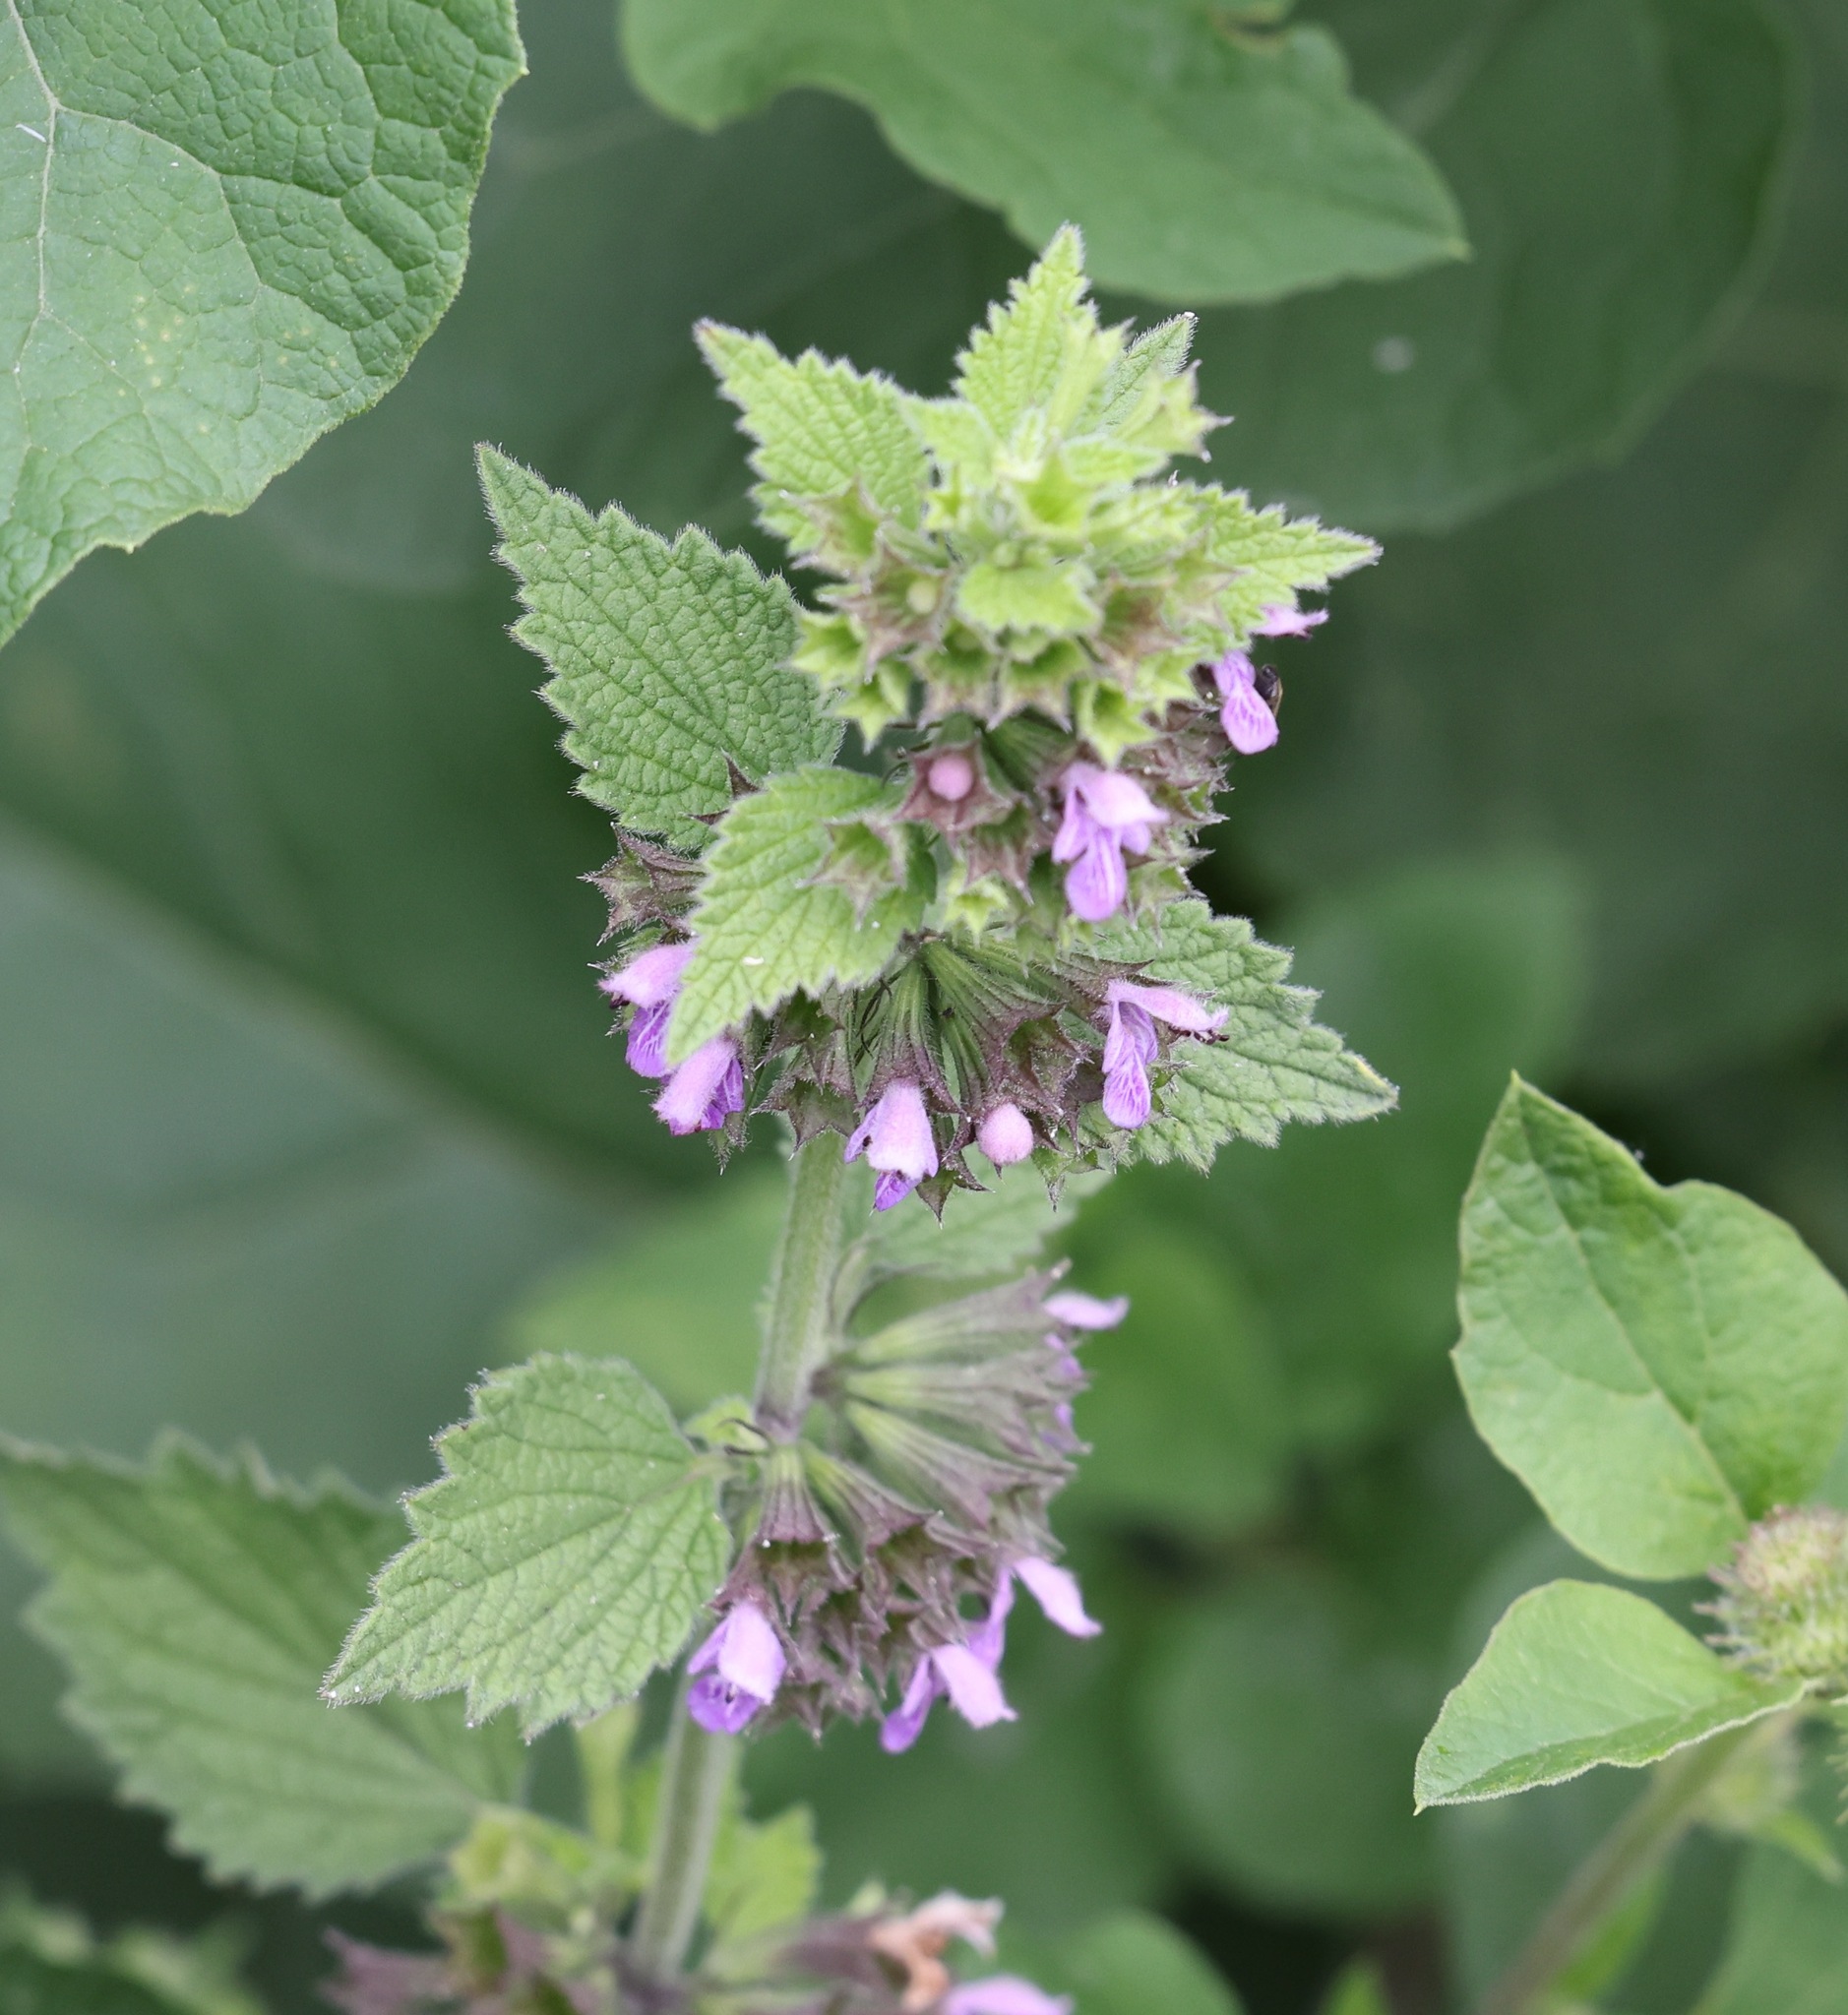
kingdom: Plantae
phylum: Tracheophyta
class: Magnoliopsida
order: Lamiales
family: Lamiaceae
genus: Ballota
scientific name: Ballota nigra
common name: Black horehound
